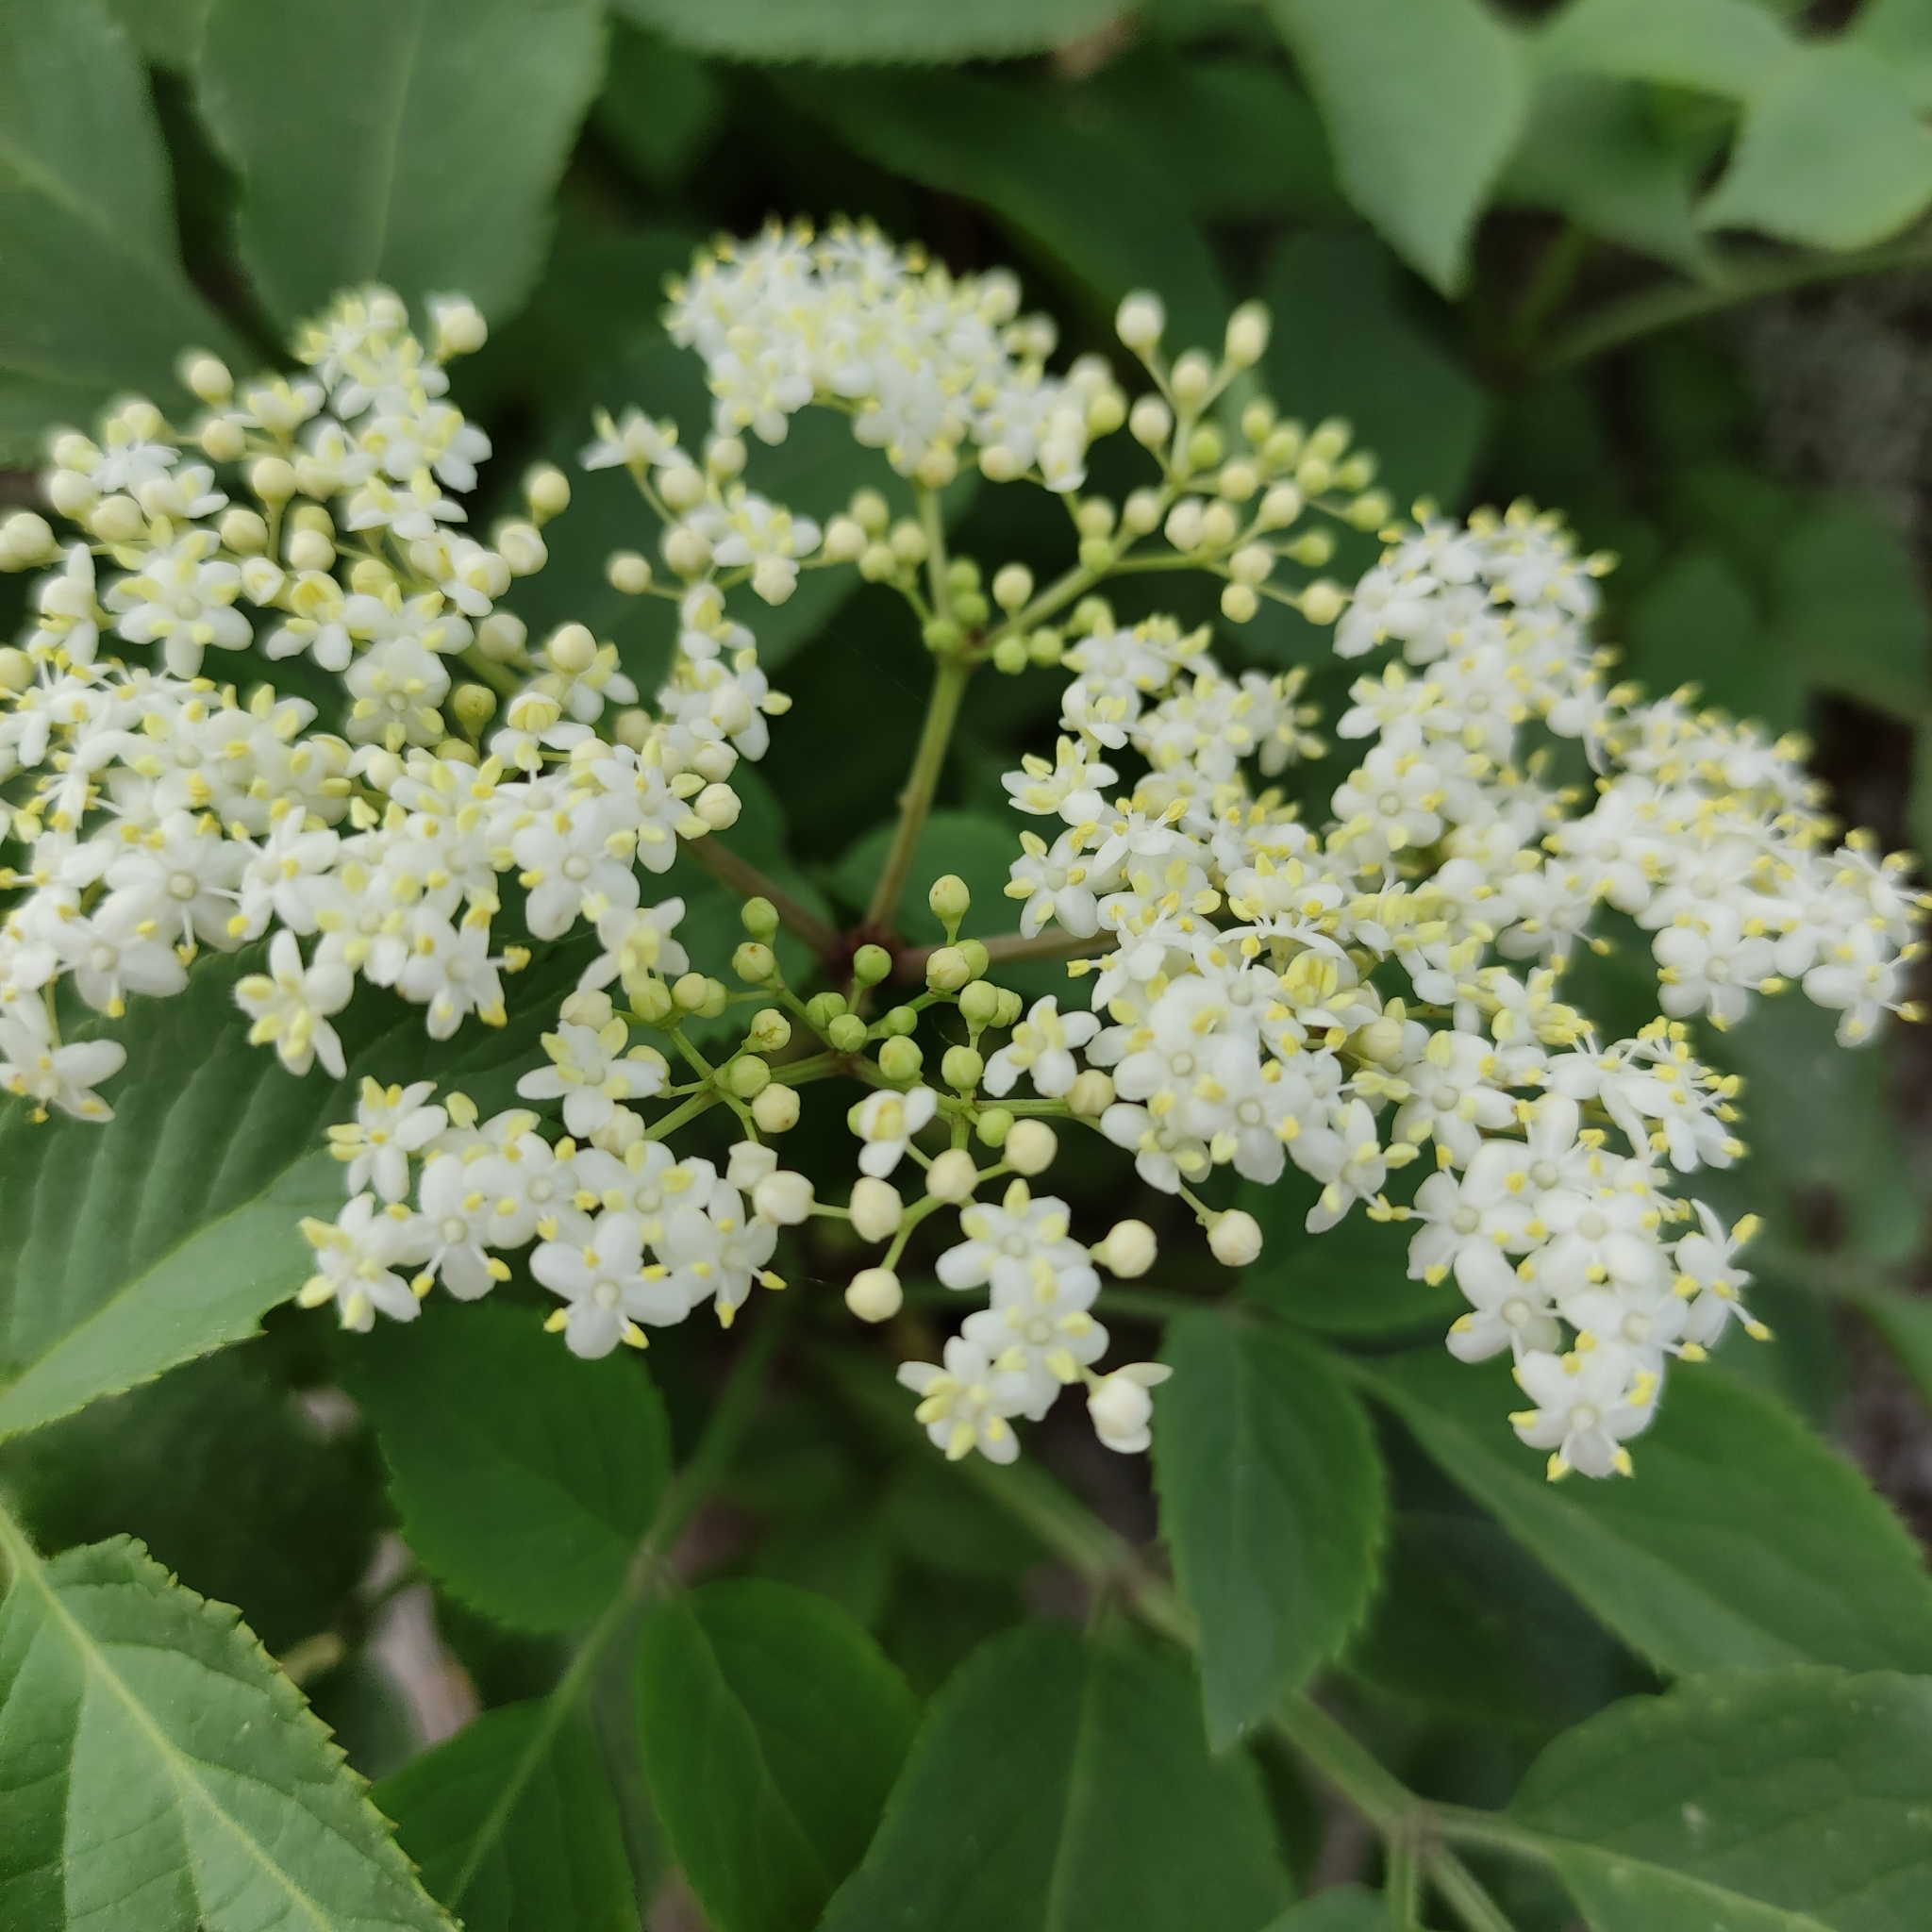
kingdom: Plantae
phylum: Tracheophyta
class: Magnoliopsida
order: Dipsacales
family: Viburnaceae
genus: Sambucus
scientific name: Sambucus nigra
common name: Elder
